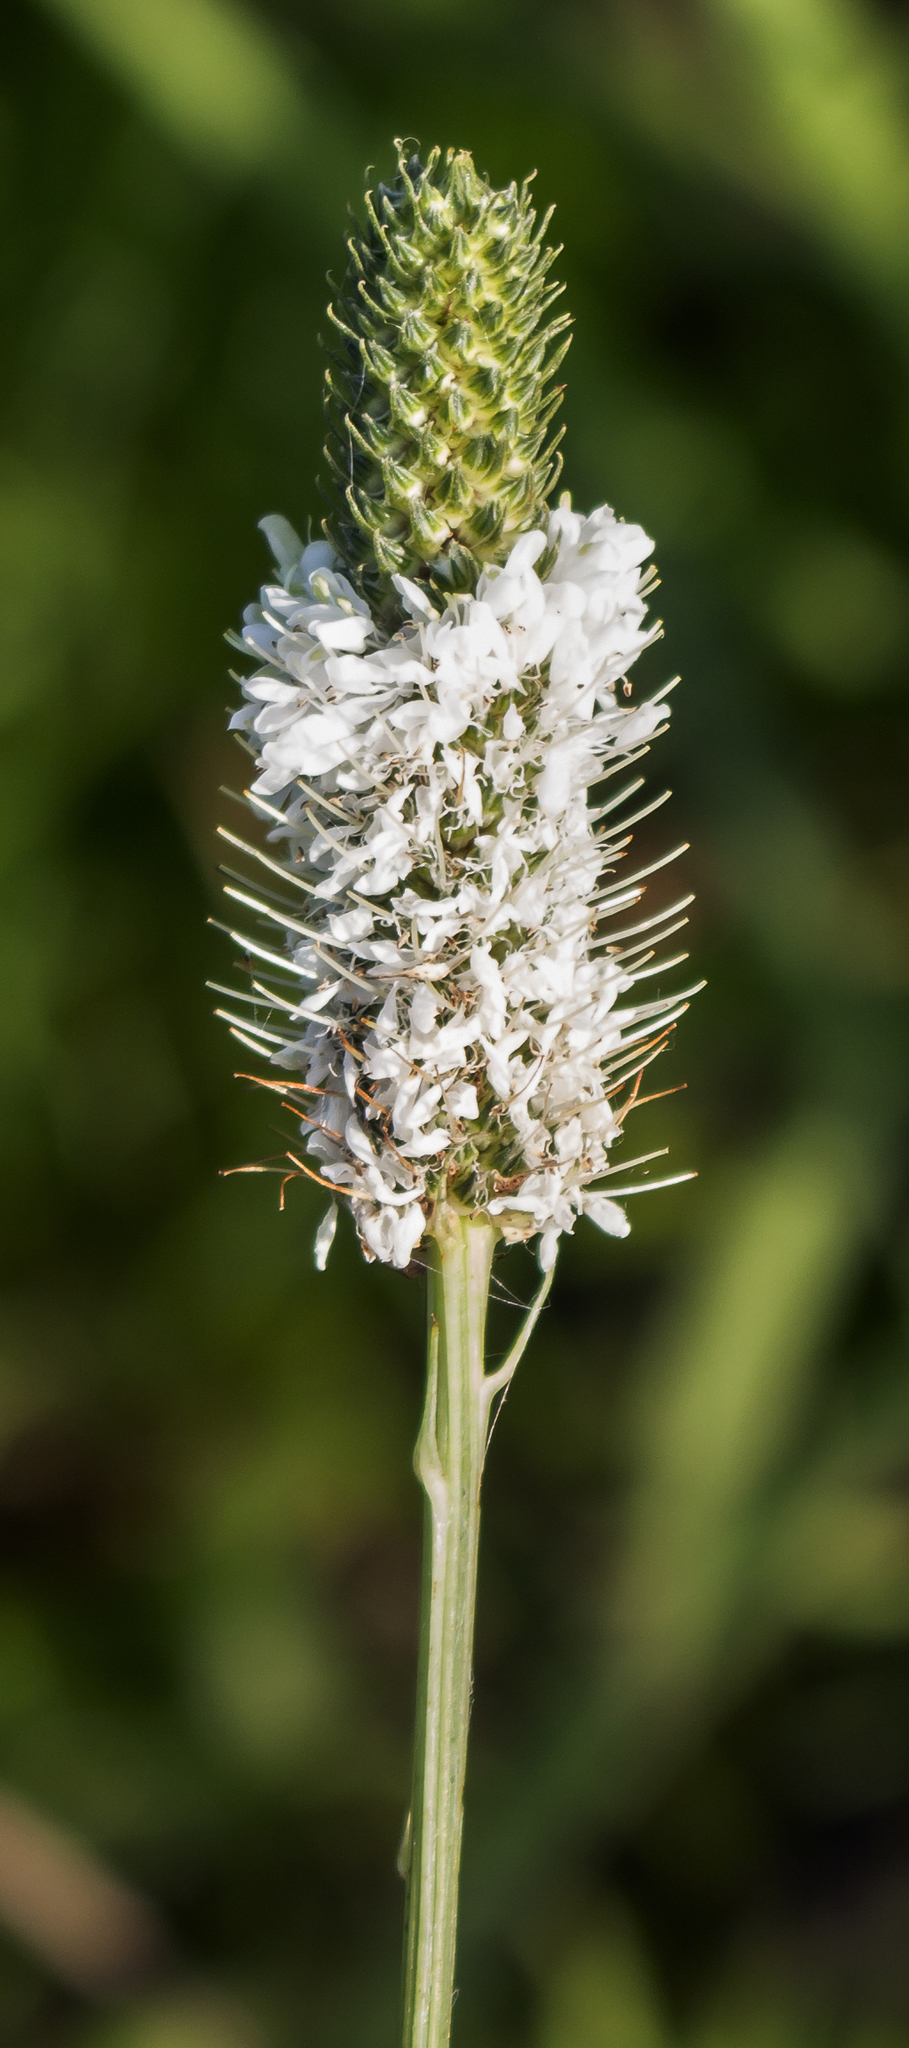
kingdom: Plantae
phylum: Tracheophyta
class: Magnoliopsida
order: Fabales
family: Fabaceae
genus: Dalea
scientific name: Dalea candida
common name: White prairie-clover
